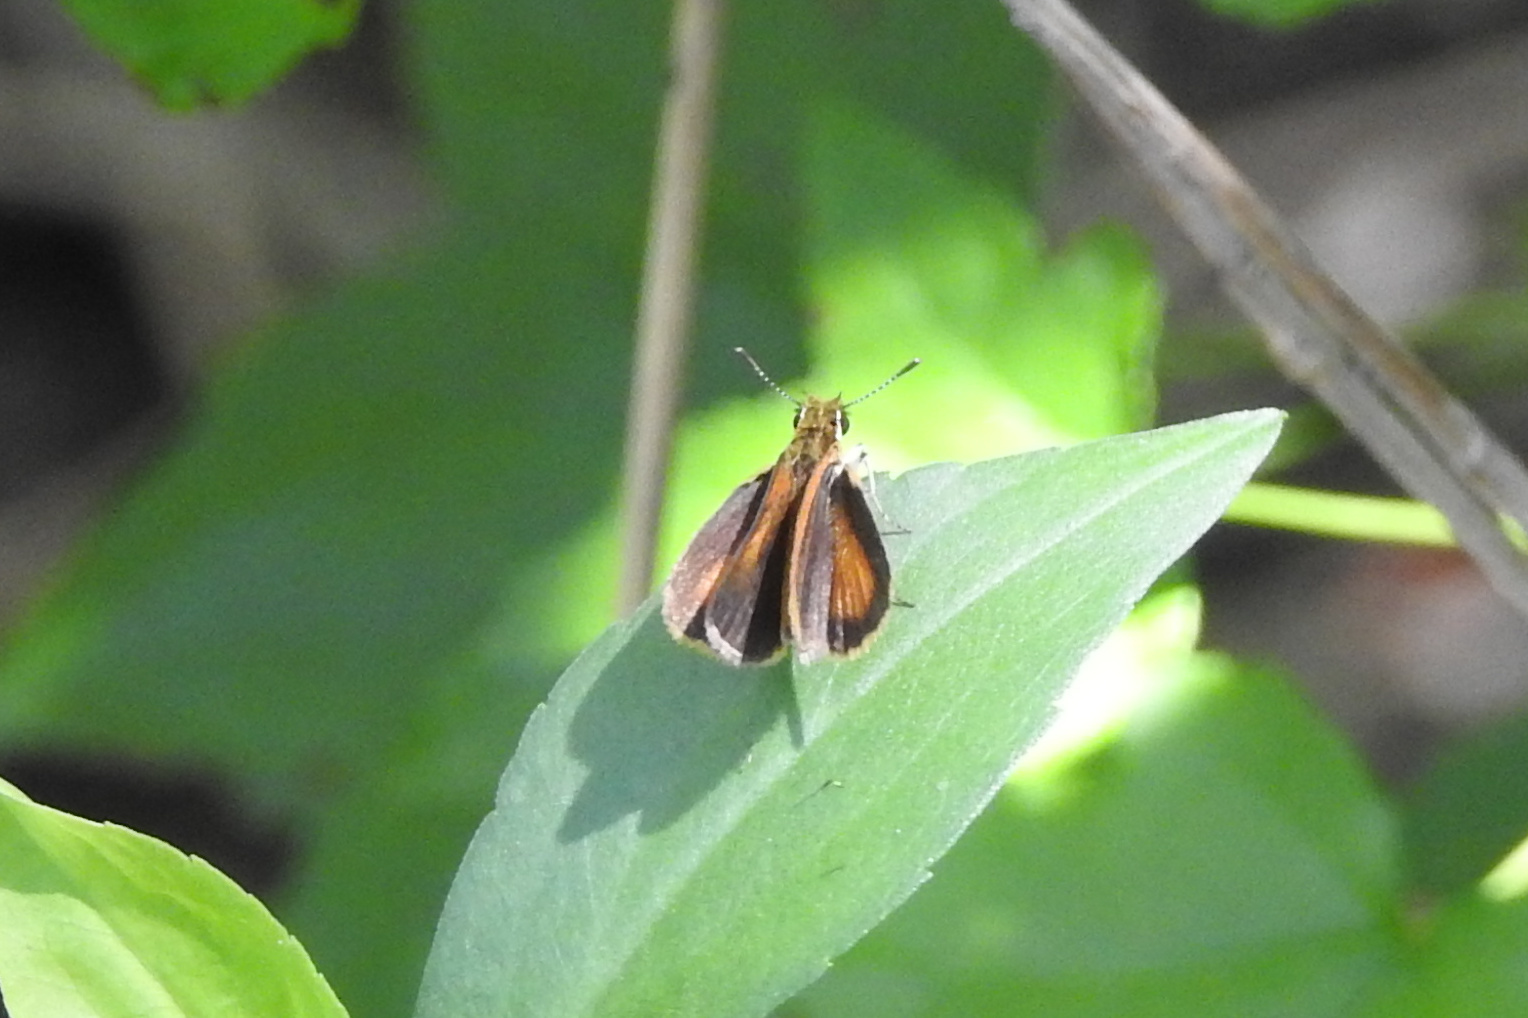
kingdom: Animalia
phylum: Arthropoda
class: Insecta
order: Lepidoptera
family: Hesperiidae
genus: Ancyloxypha
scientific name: Ancyloxypha numitor
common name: Least skipper
